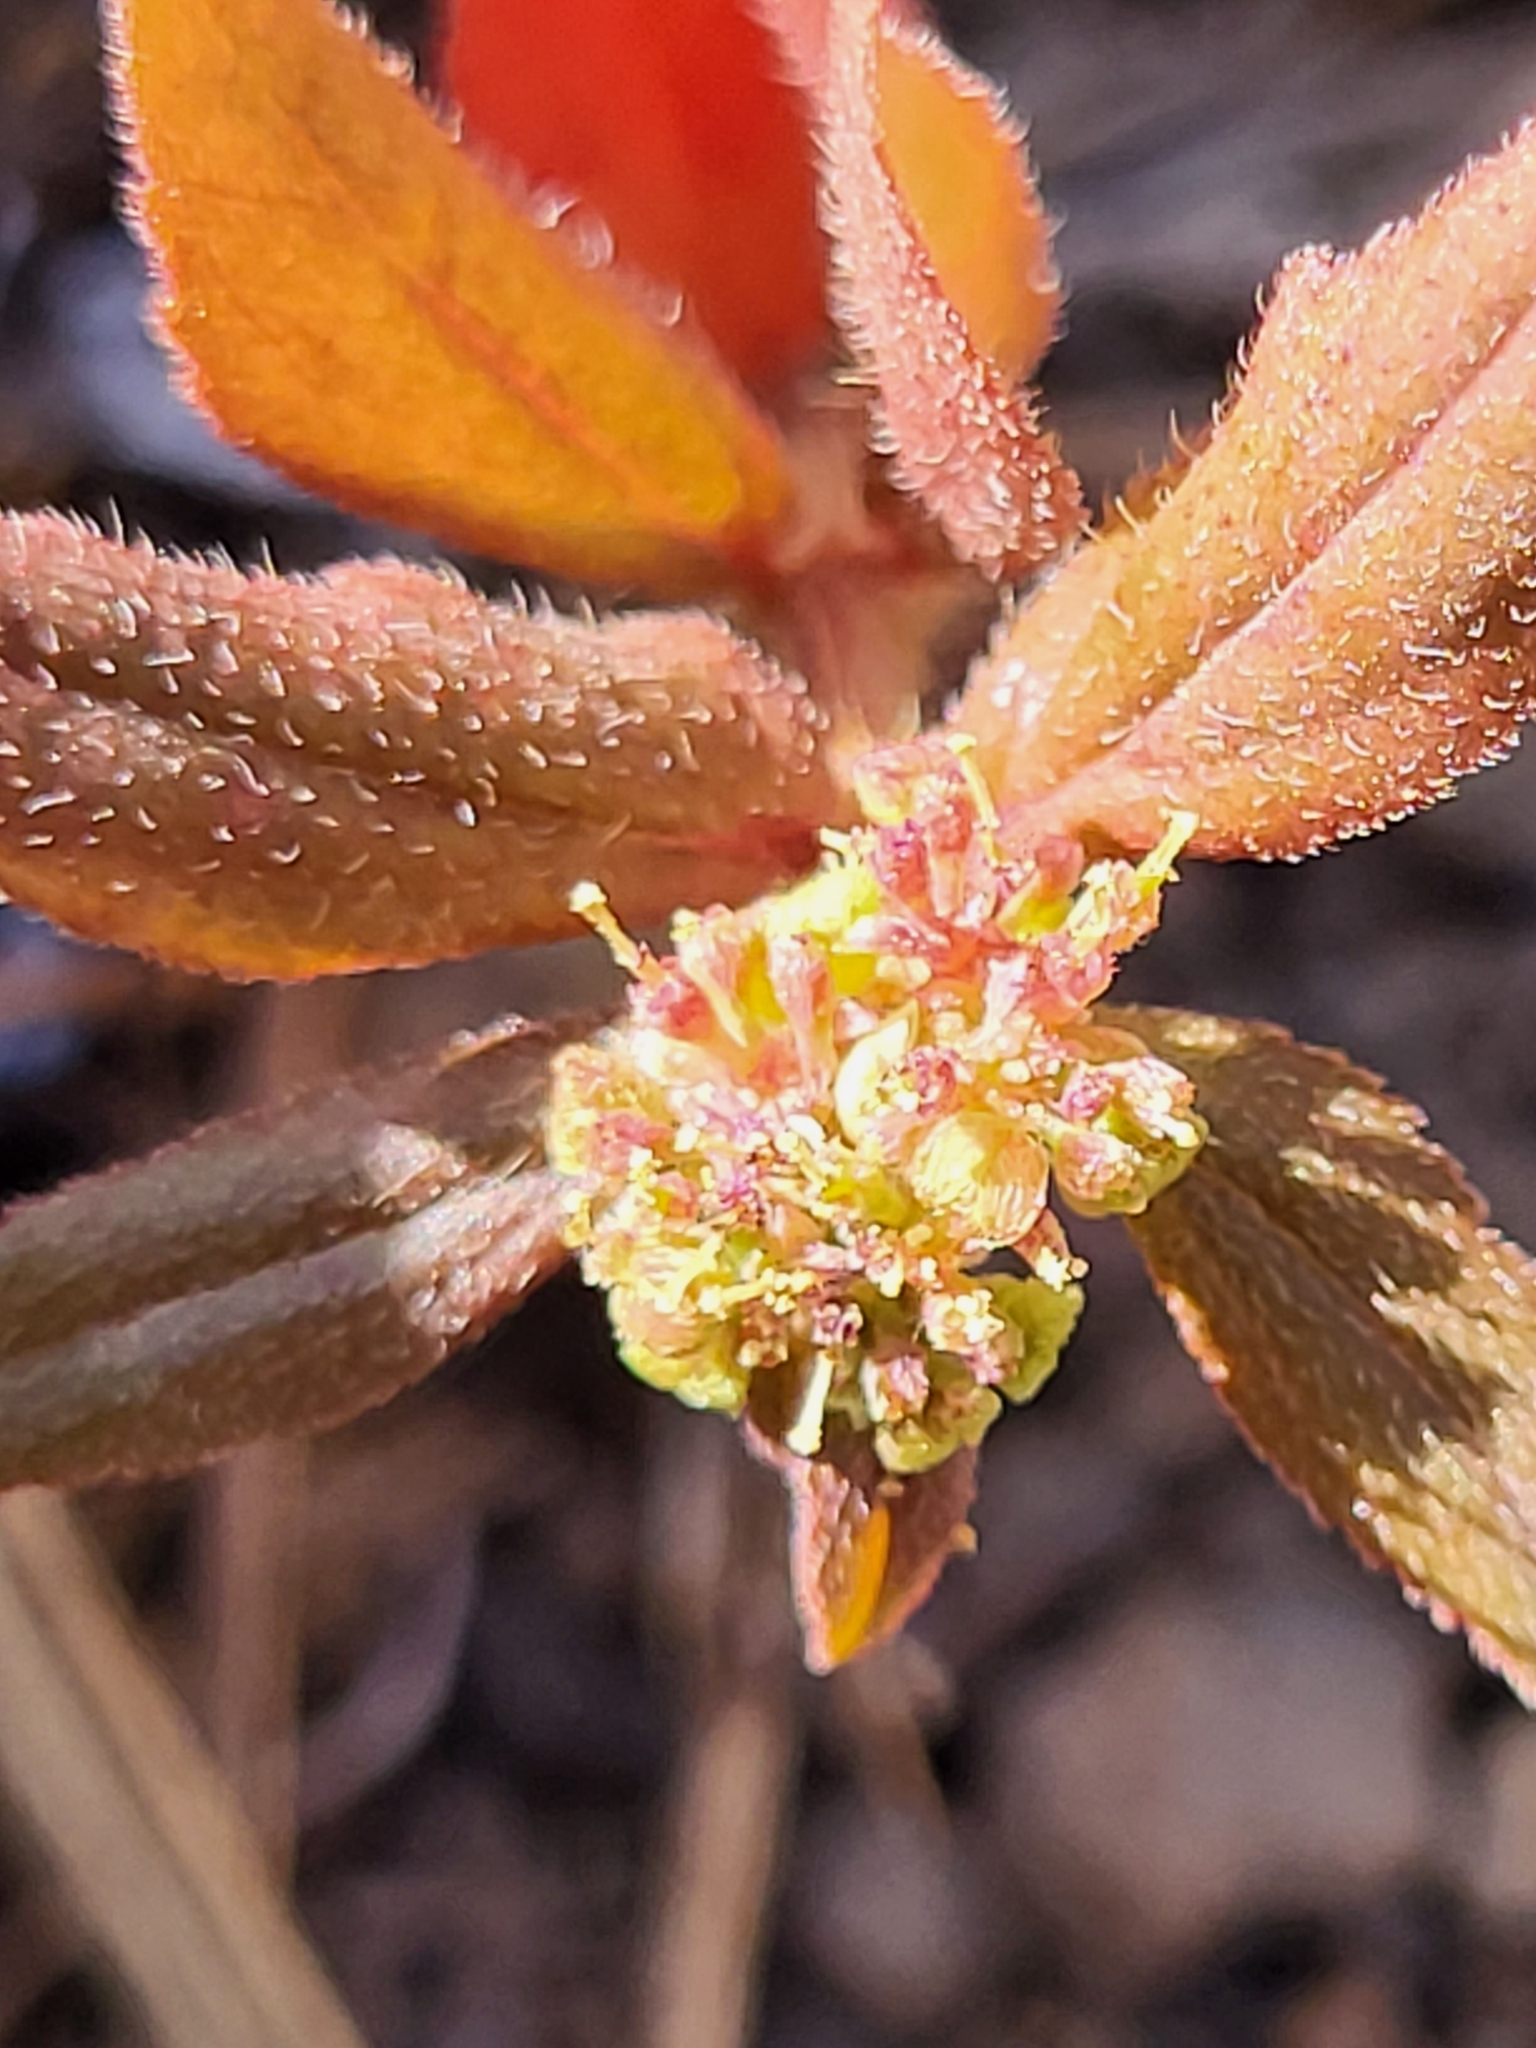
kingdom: Plantae
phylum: Tracheophyta
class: Magnoliopsida
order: Malpighiales
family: Euphorbiaceae
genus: Euphorbia
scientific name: Euphorbia hirta
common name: Pillpod sandmat
